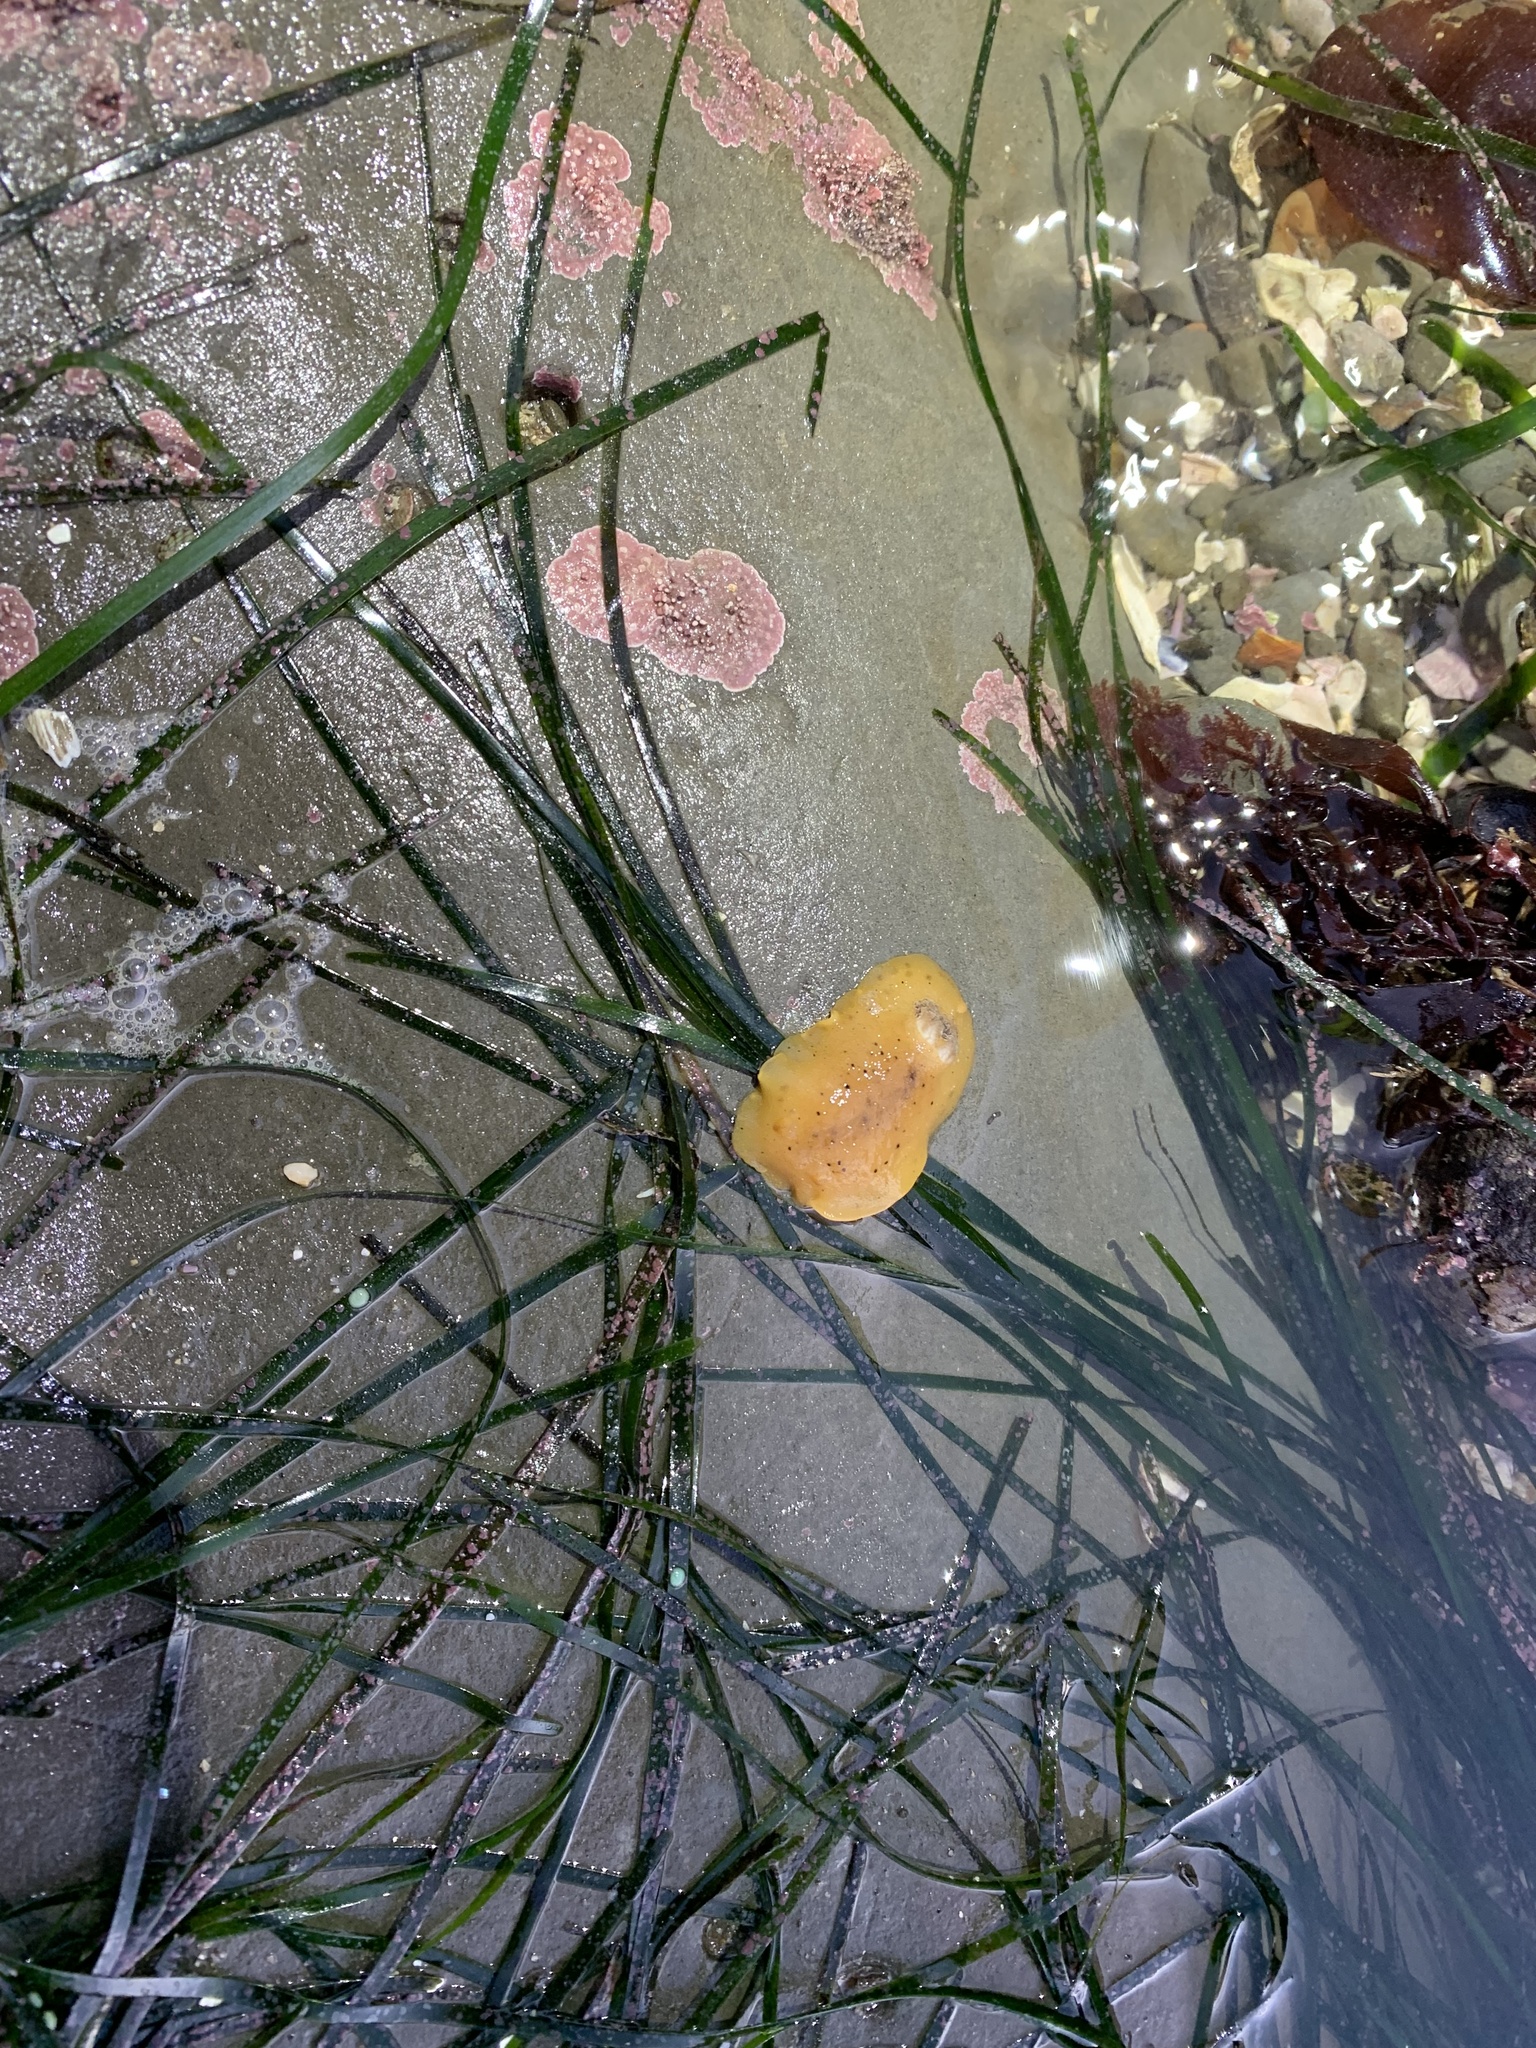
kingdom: Animalia
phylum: Mollusca
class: Gastropoda
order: Nudibranchia
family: Discodorididae
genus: Geitodoris
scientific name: Geitodoris heathi
